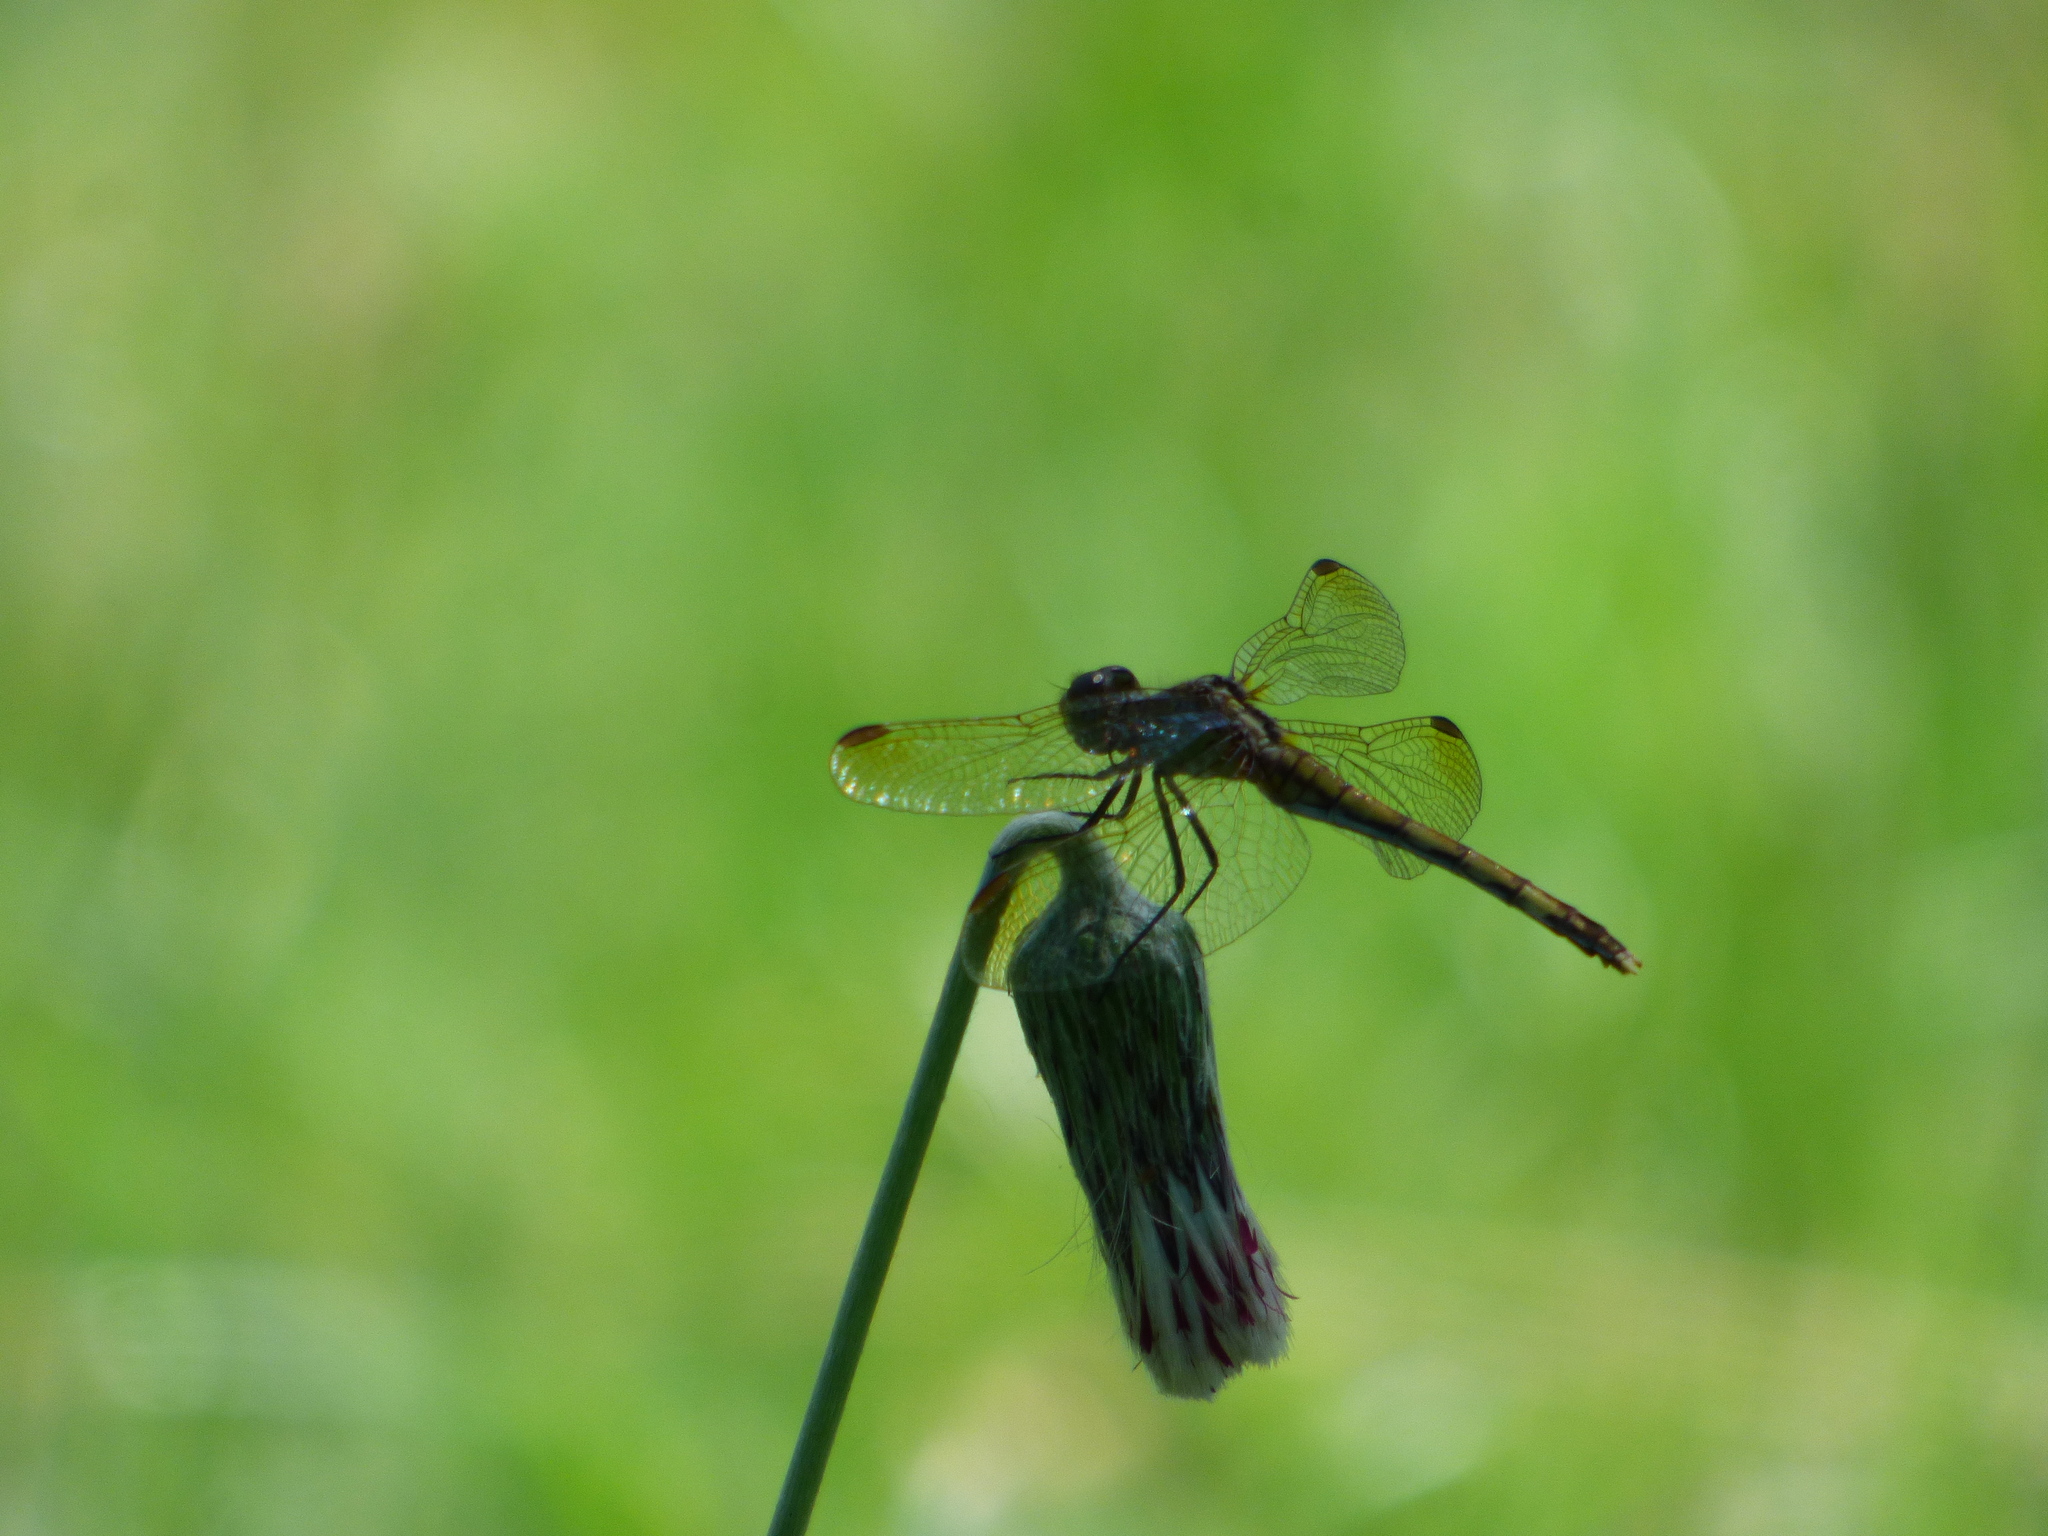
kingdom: Animalia
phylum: Arthropoda
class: Insecta
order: Odonata
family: Libellulidae
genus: Erythrodiplax
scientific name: Erythrodiplax nigricans
